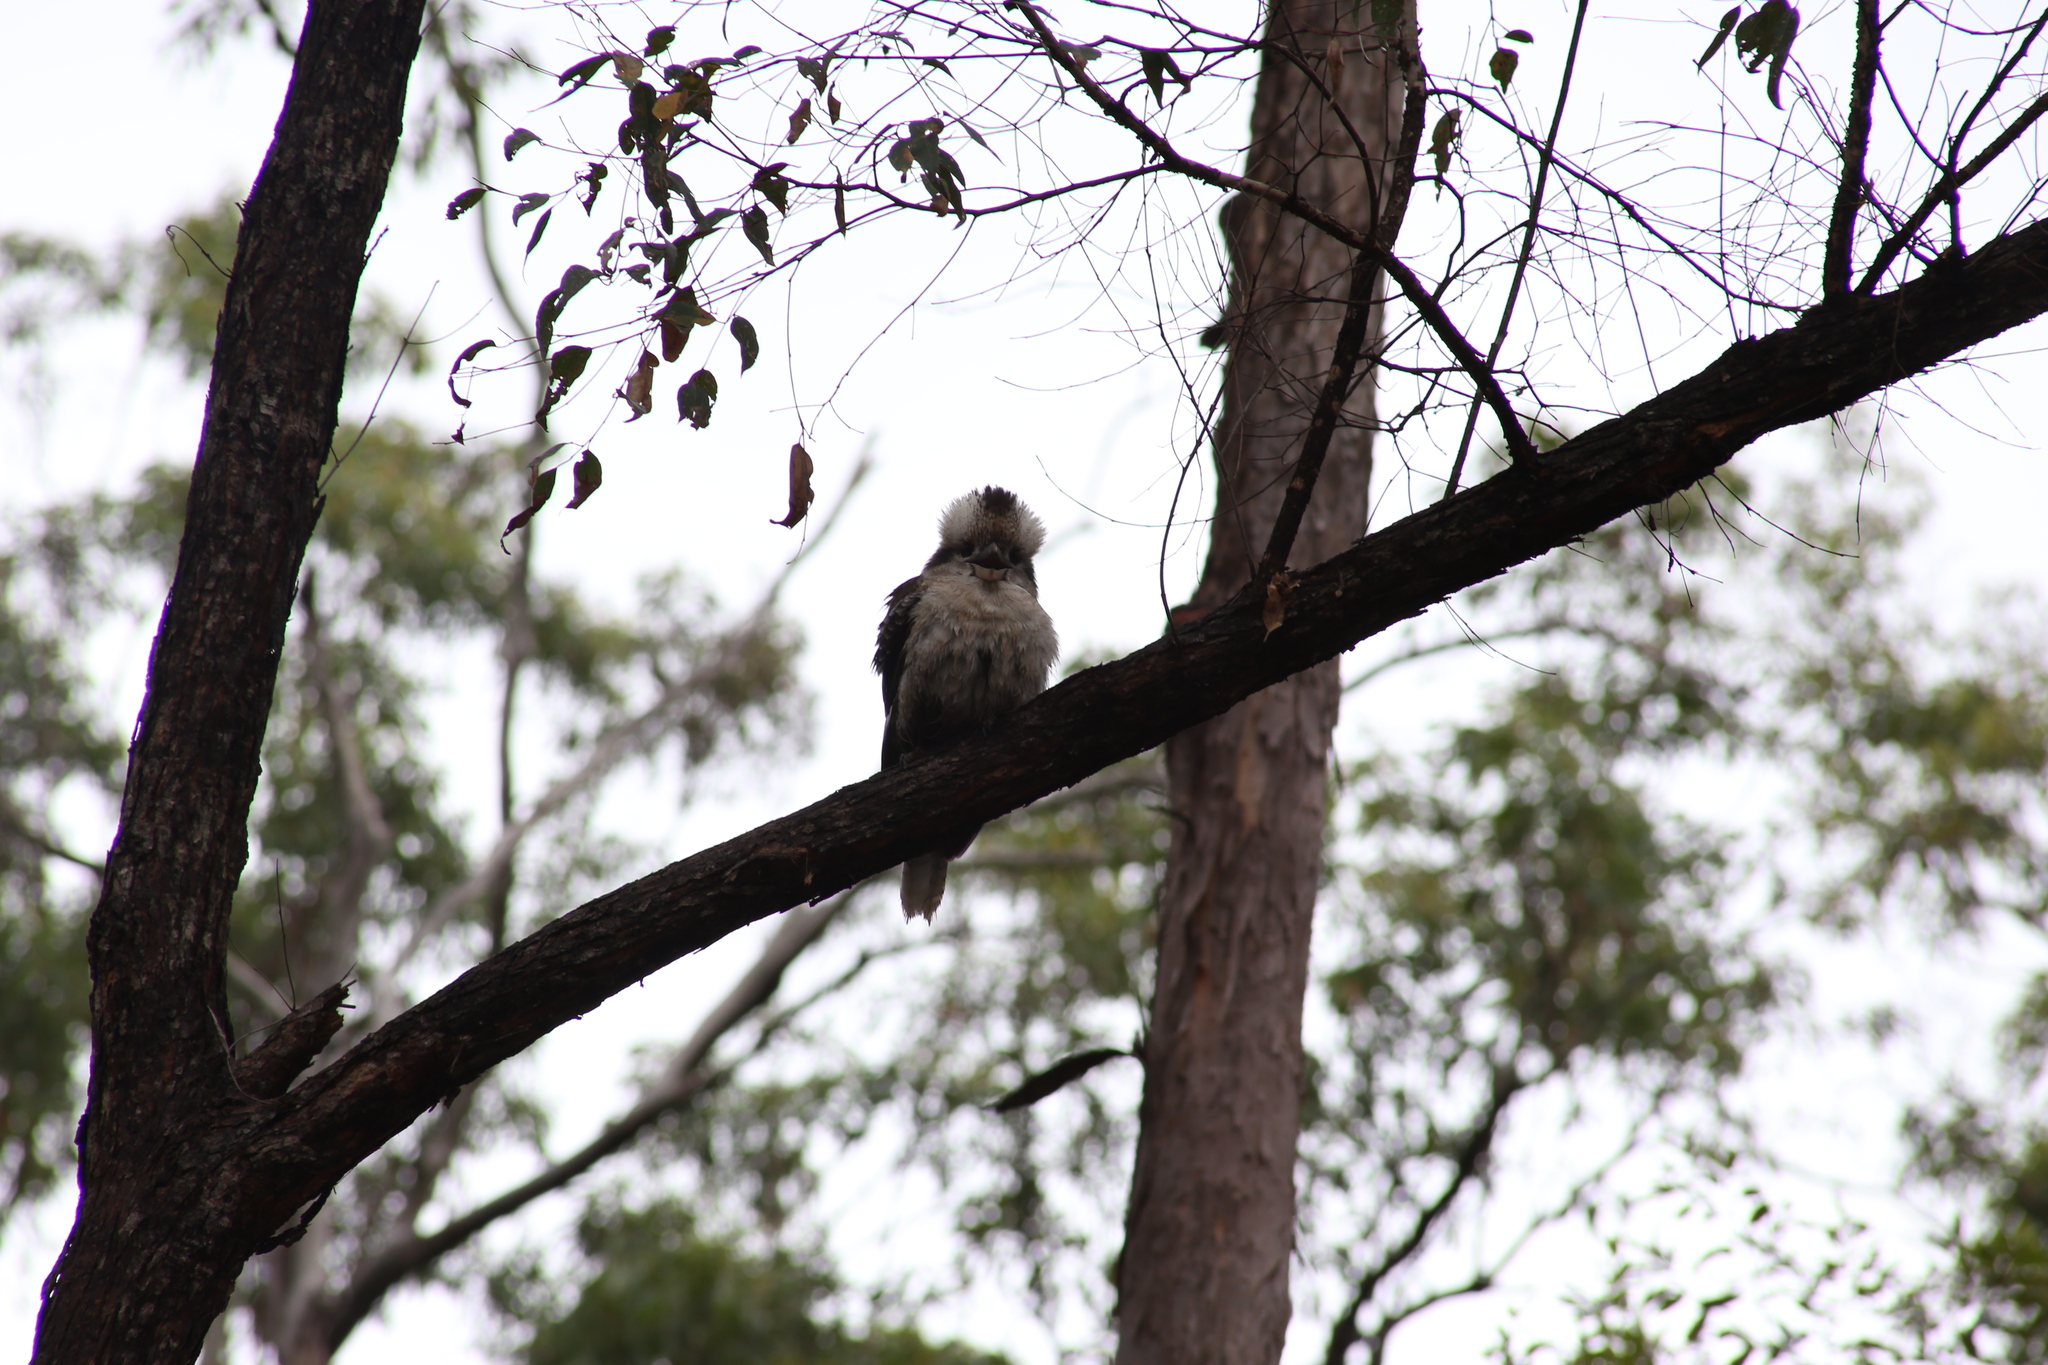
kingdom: Animalia
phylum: Chordata
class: Aves
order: Coraciiformes
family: Alcedinidae
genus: Dacelo
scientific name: Dacelo novaeguineae
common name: Laughing kookaburra
